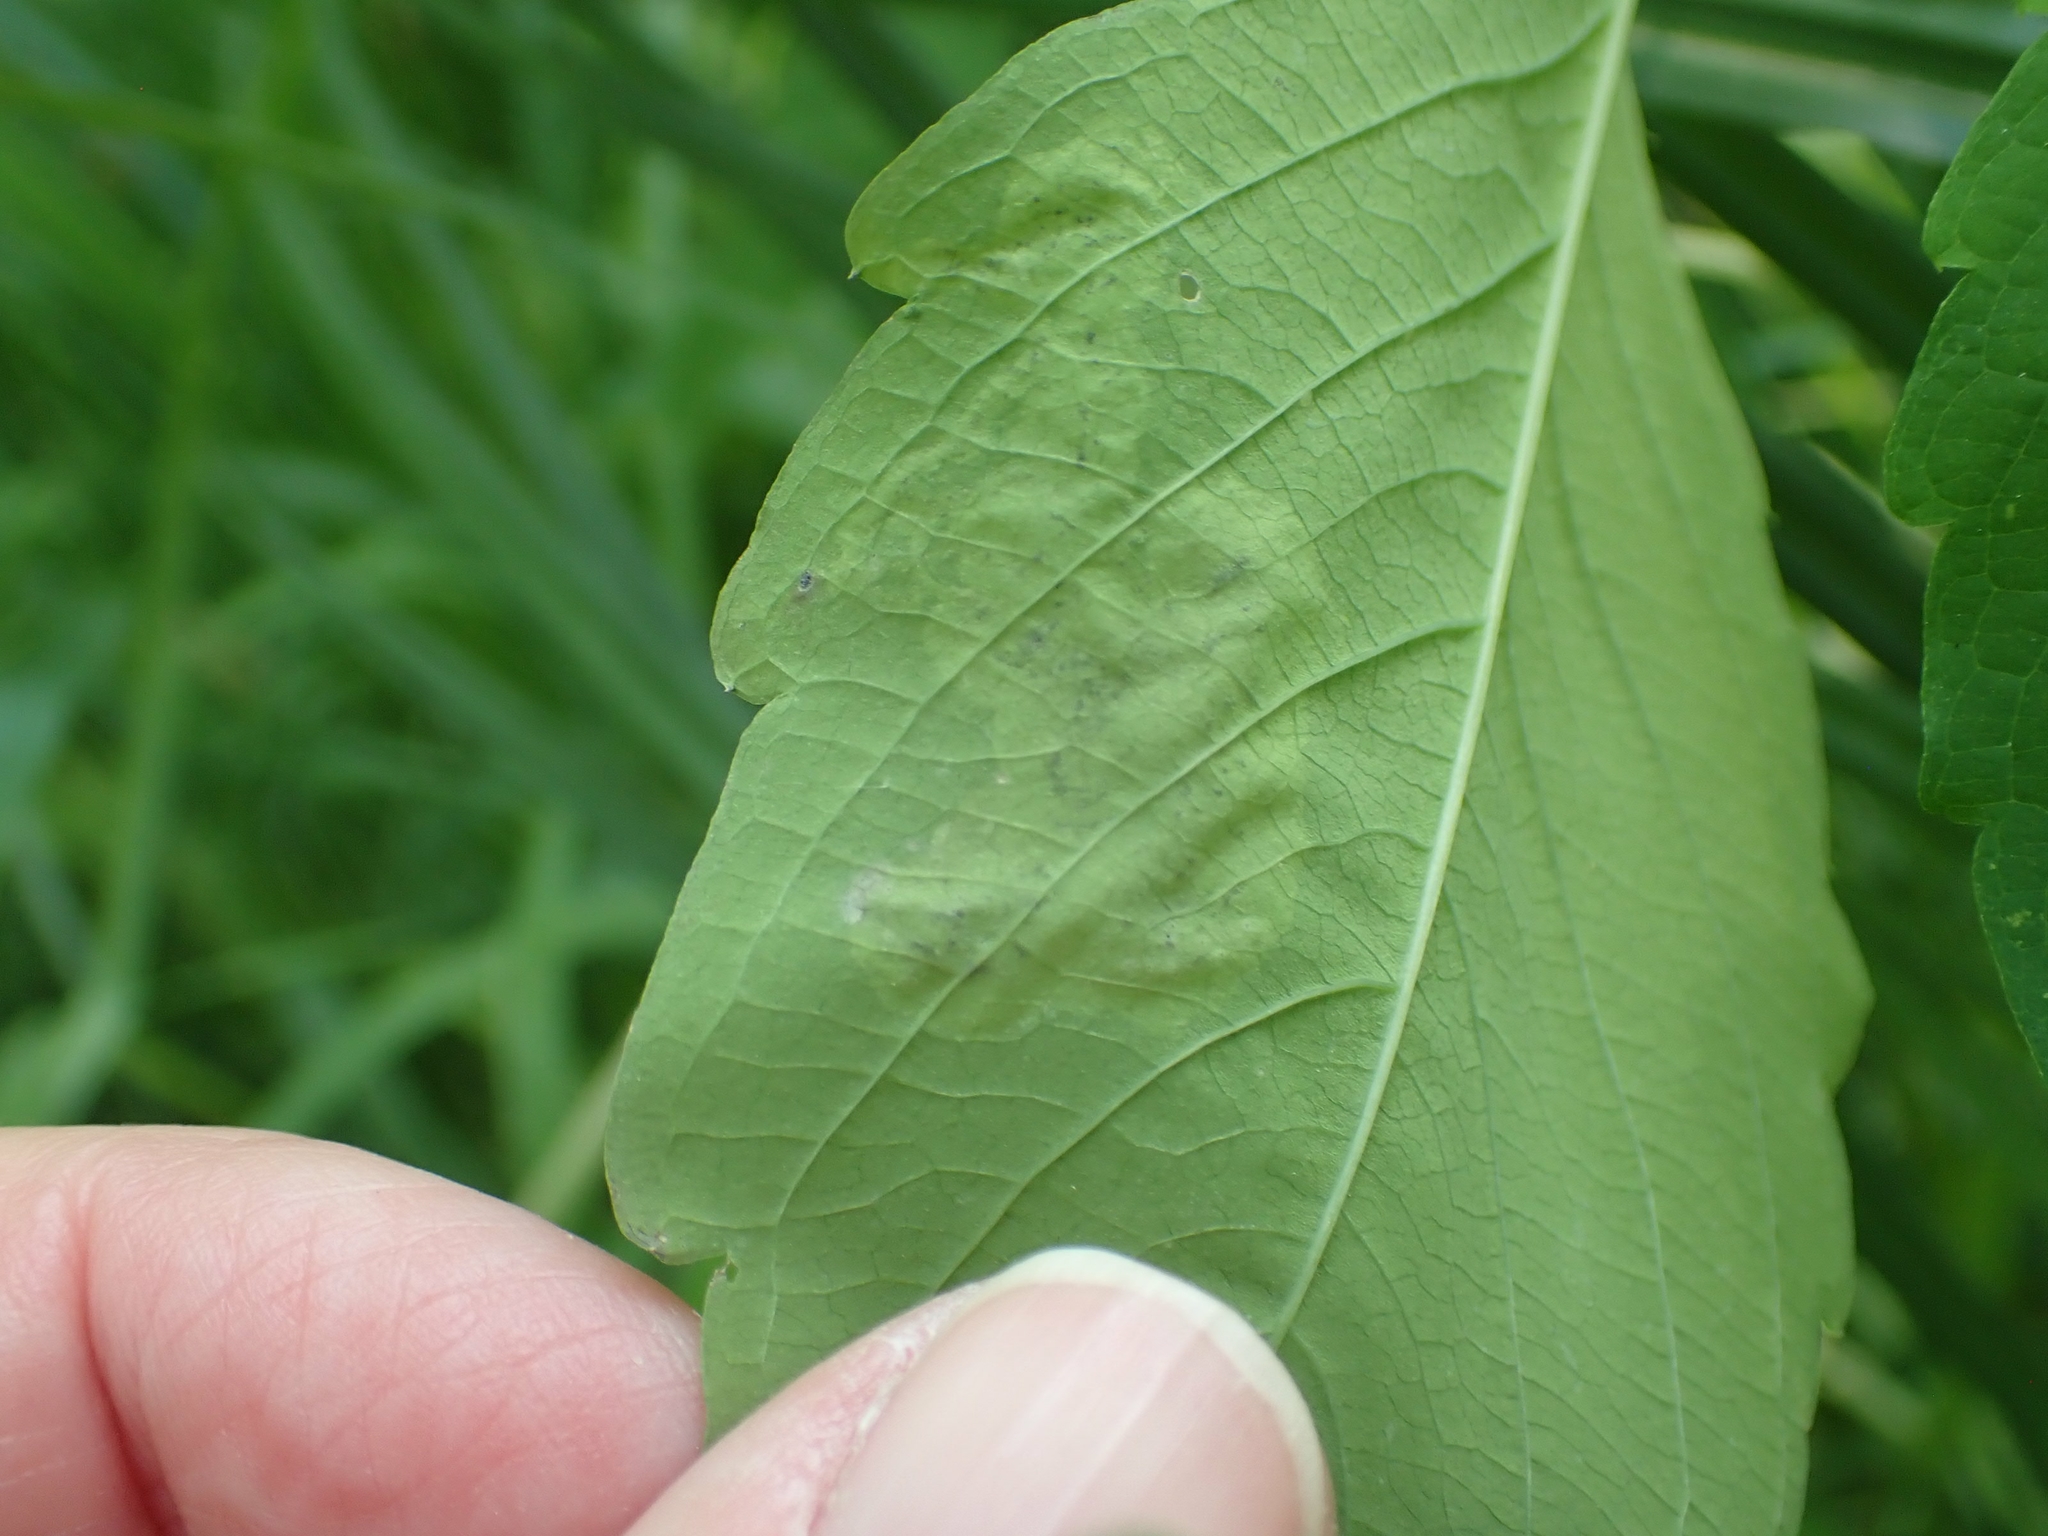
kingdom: Animalia
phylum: Arthropoda
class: Insecta
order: Diptera
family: Agromyzidae
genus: Phytoliriomyza
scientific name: Phytoliriomyza melampyga
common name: Jewelweed leaf-miner fly
